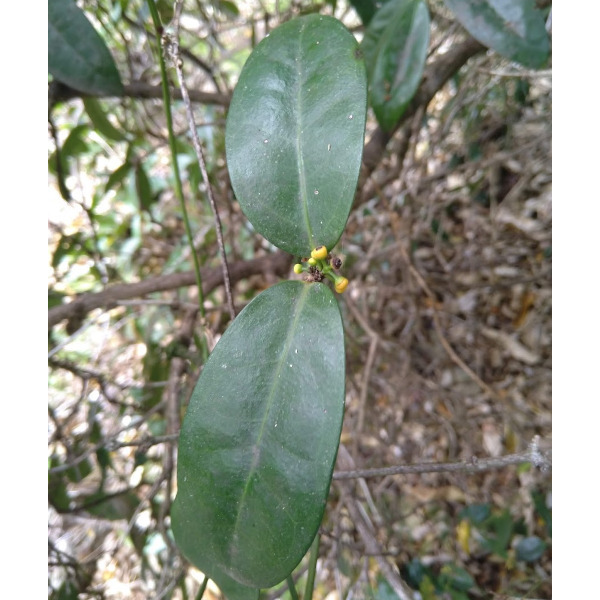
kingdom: Plantae
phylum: Tracheophyta
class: Magnoliopsida
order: Laurales
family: Monimiaceae
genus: Wilkiea
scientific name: Wilkiea macrophylla
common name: Large-leaved wilkiea
